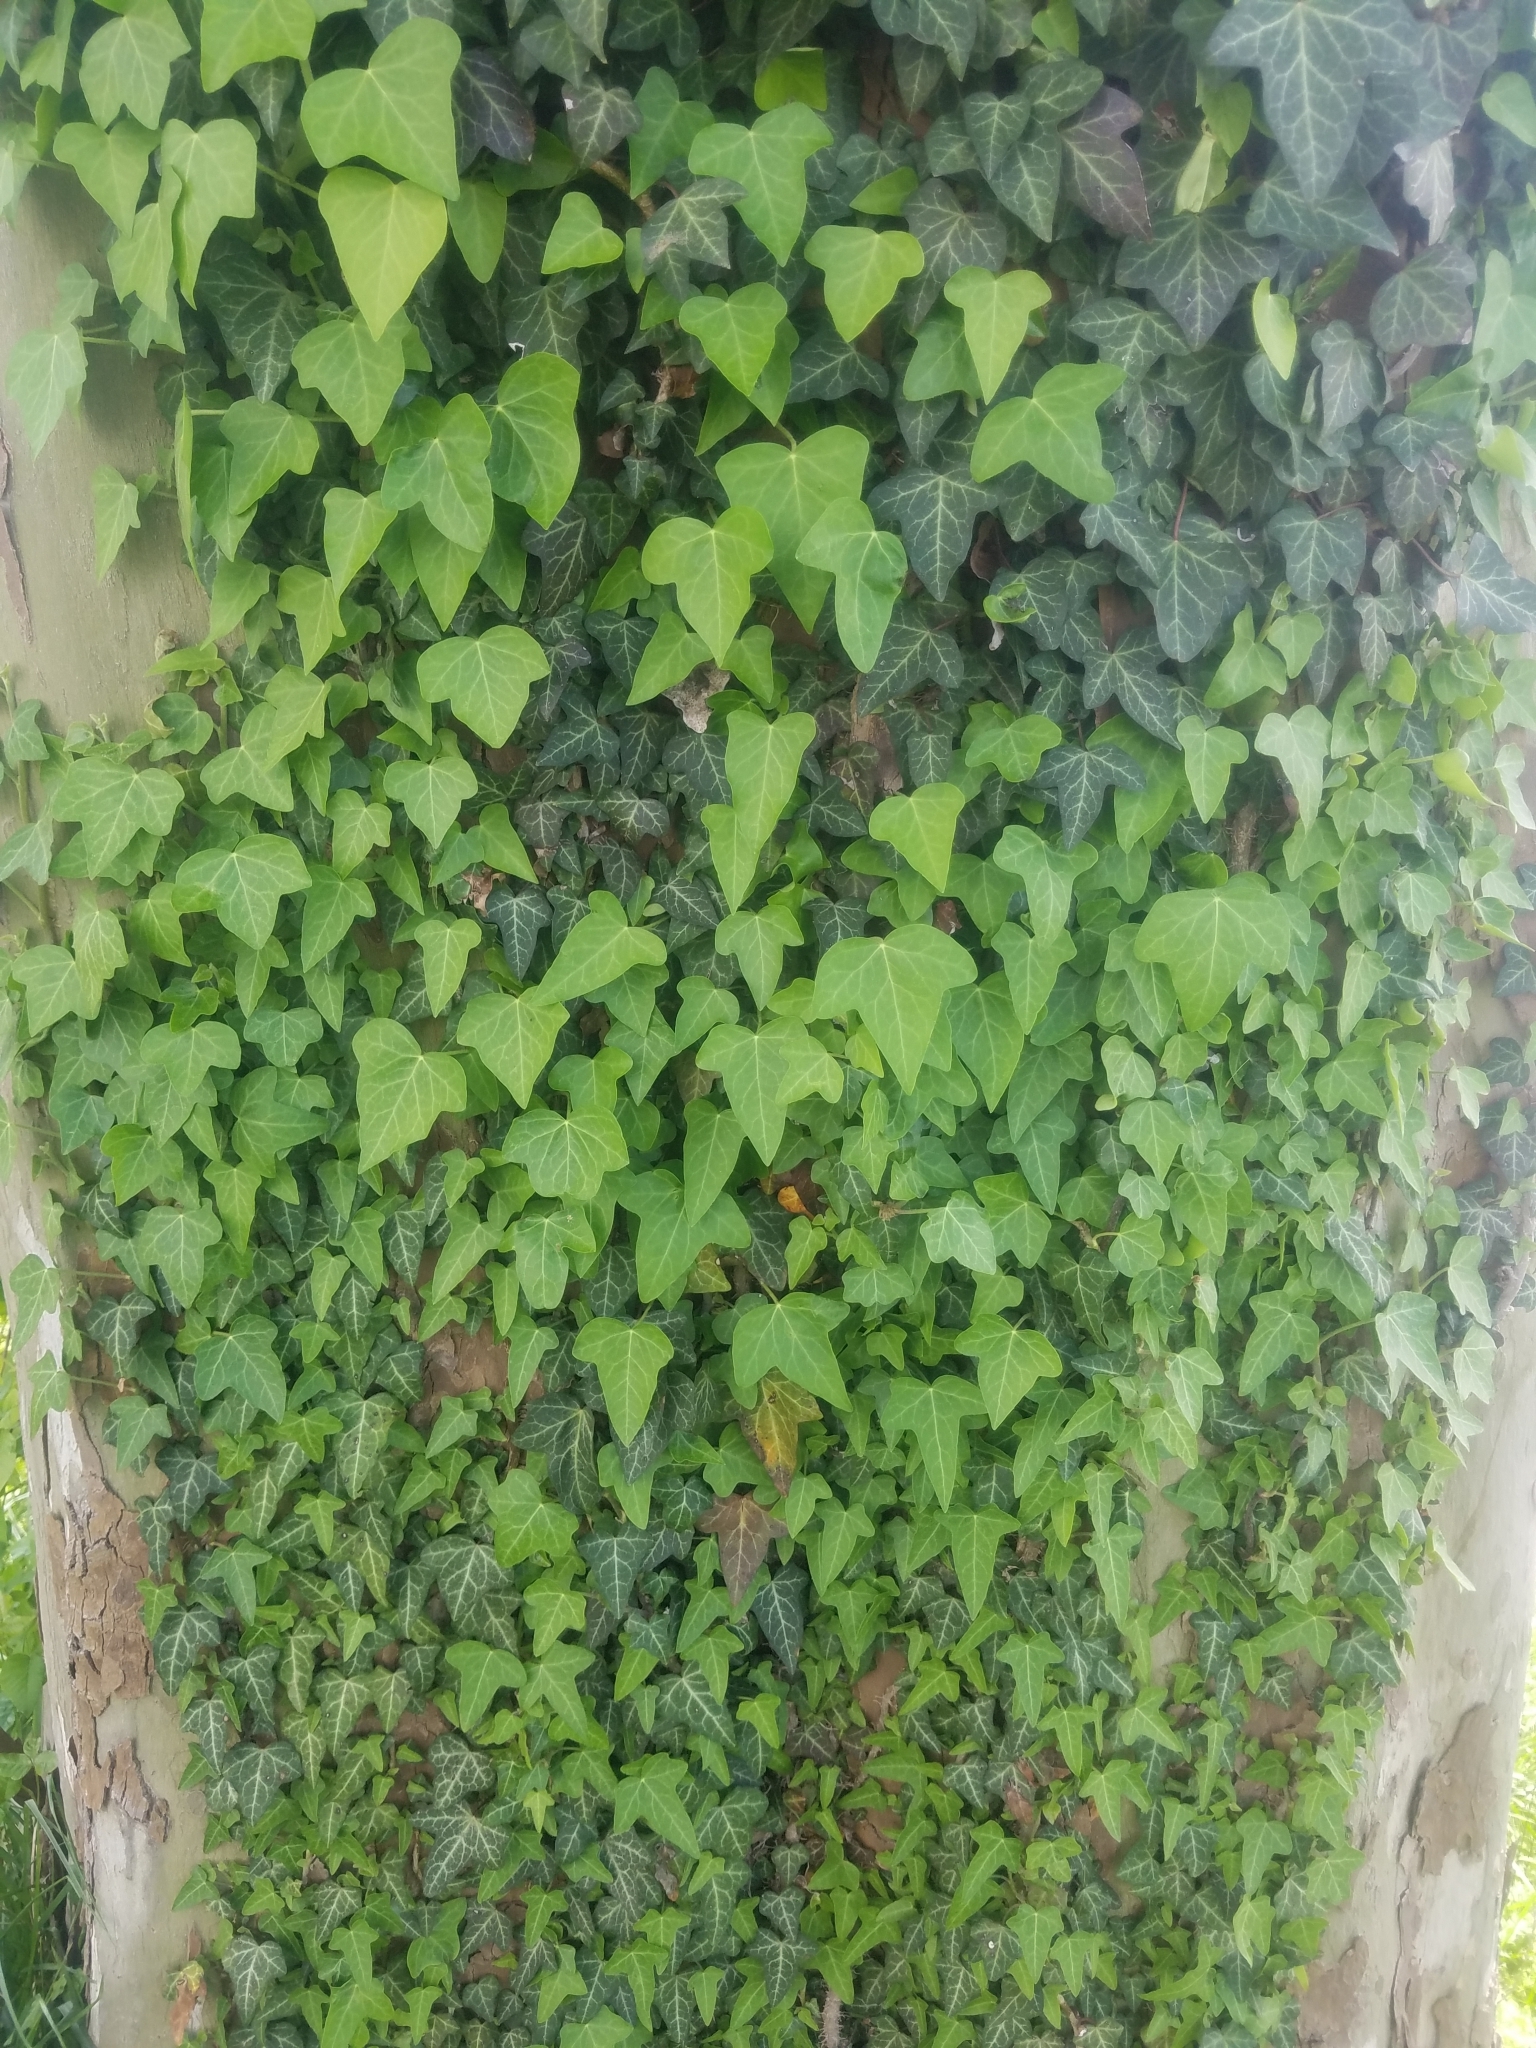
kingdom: Plantae
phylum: Tracheophyta
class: Magnoliopsida
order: Apiales
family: Araliaceae
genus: Hedera
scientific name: Hedera helix
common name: Ivy
